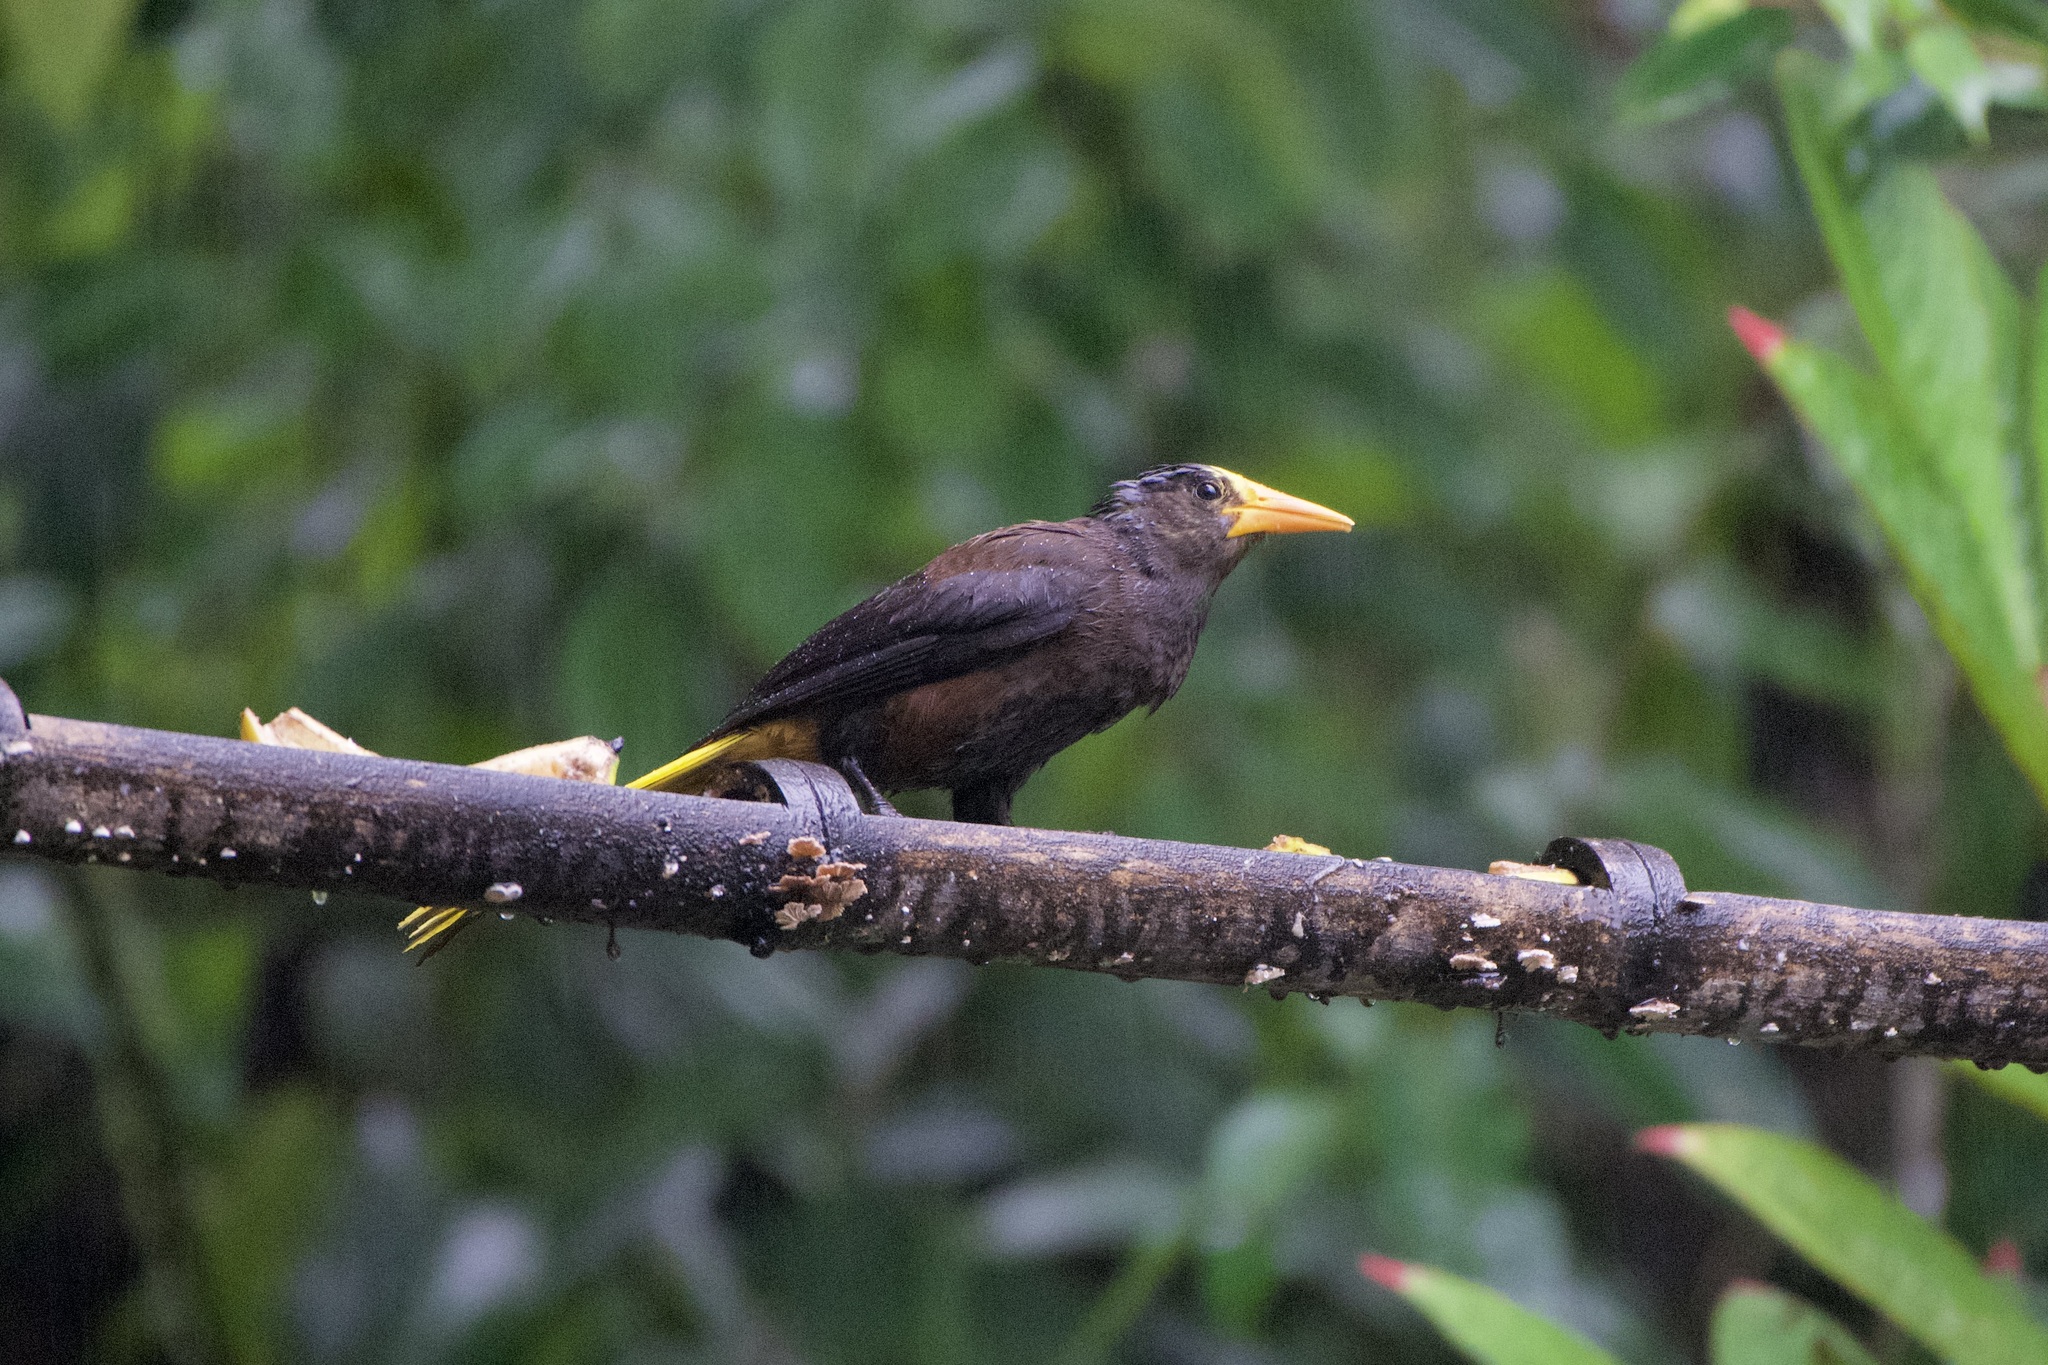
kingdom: Animalia
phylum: Chordata
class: Aves
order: Passeriformes
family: Icteridae
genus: Psarocolius
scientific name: Psarocolius angustifrons
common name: Russet-backed oropendola
